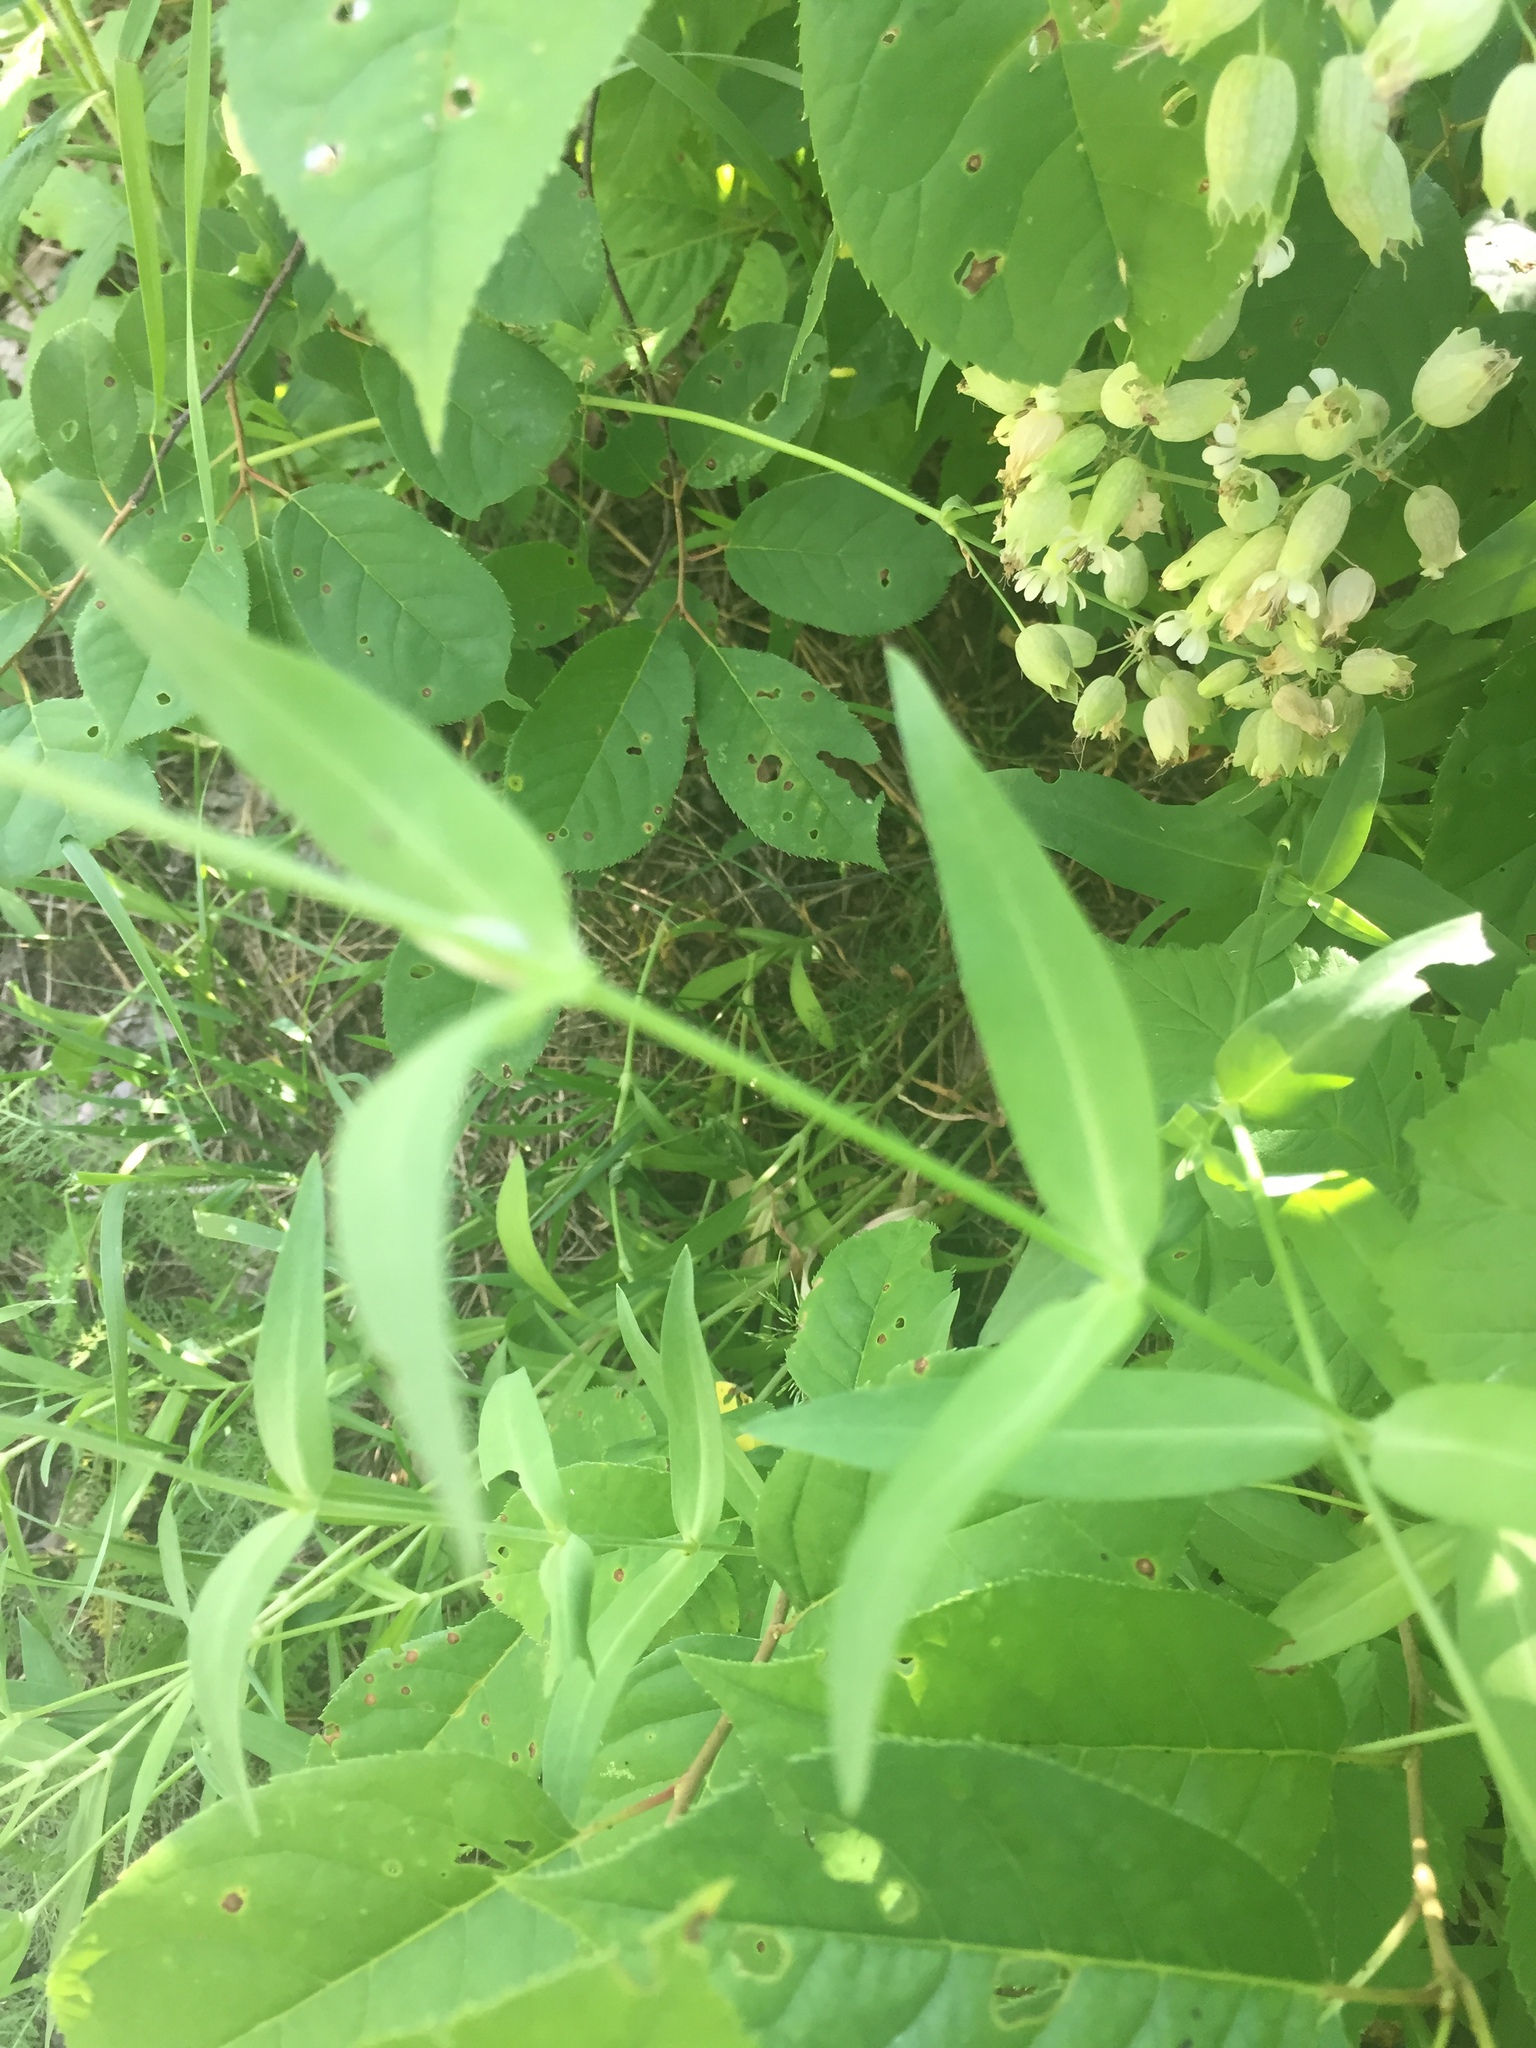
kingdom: Plantae
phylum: Tracheophyta
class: Magnoliopsida
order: Caryophyllales
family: Caryophyllaceae
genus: Silene
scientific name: Silene vulgaris
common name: Bladder campion
